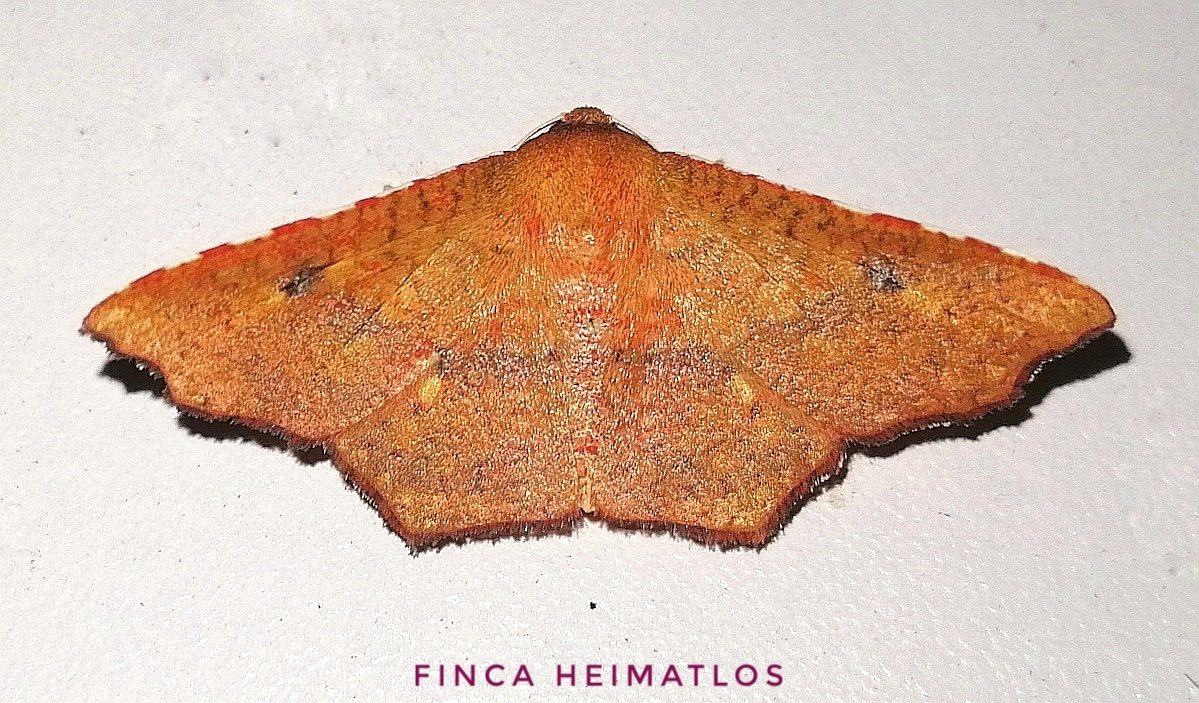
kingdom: Animalia
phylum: Arthropoda
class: Insecta
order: Lepidoptera
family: Thyrididae
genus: Rhodogonia
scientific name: Rhodogonia miniata
